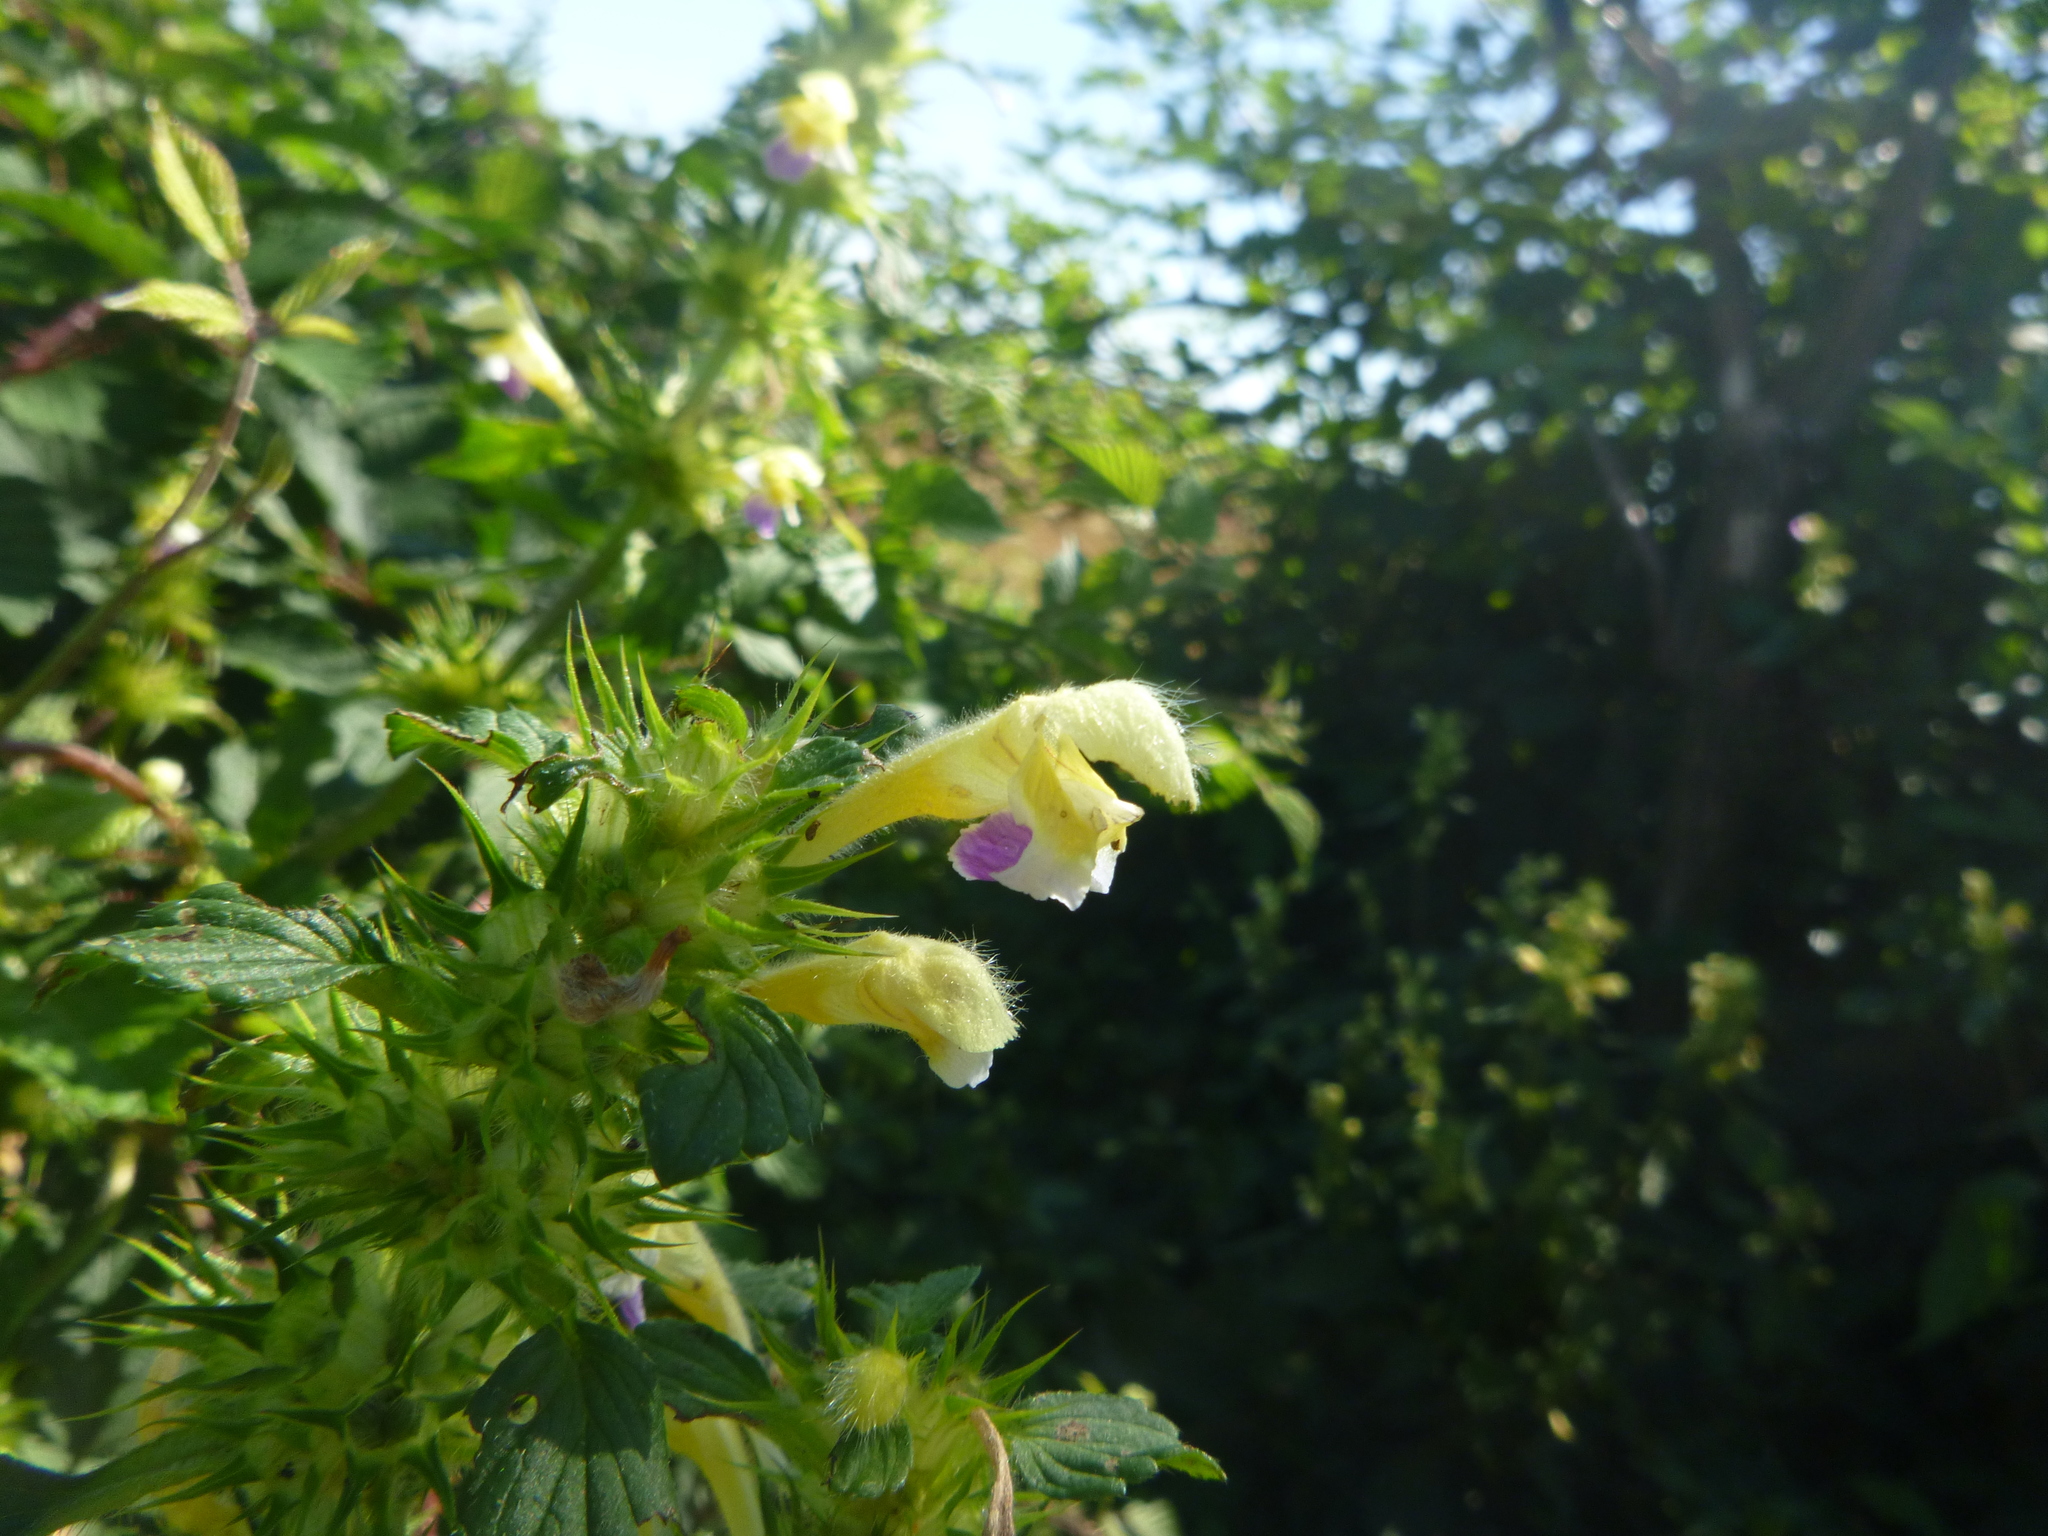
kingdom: Plantae
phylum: Tracheophyta
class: Magnoliopsida
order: Lamiales
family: Lamiaceae
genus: Galeopsis
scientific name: Galeopsis speciosa
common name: Large-flowered hemp-nettle
